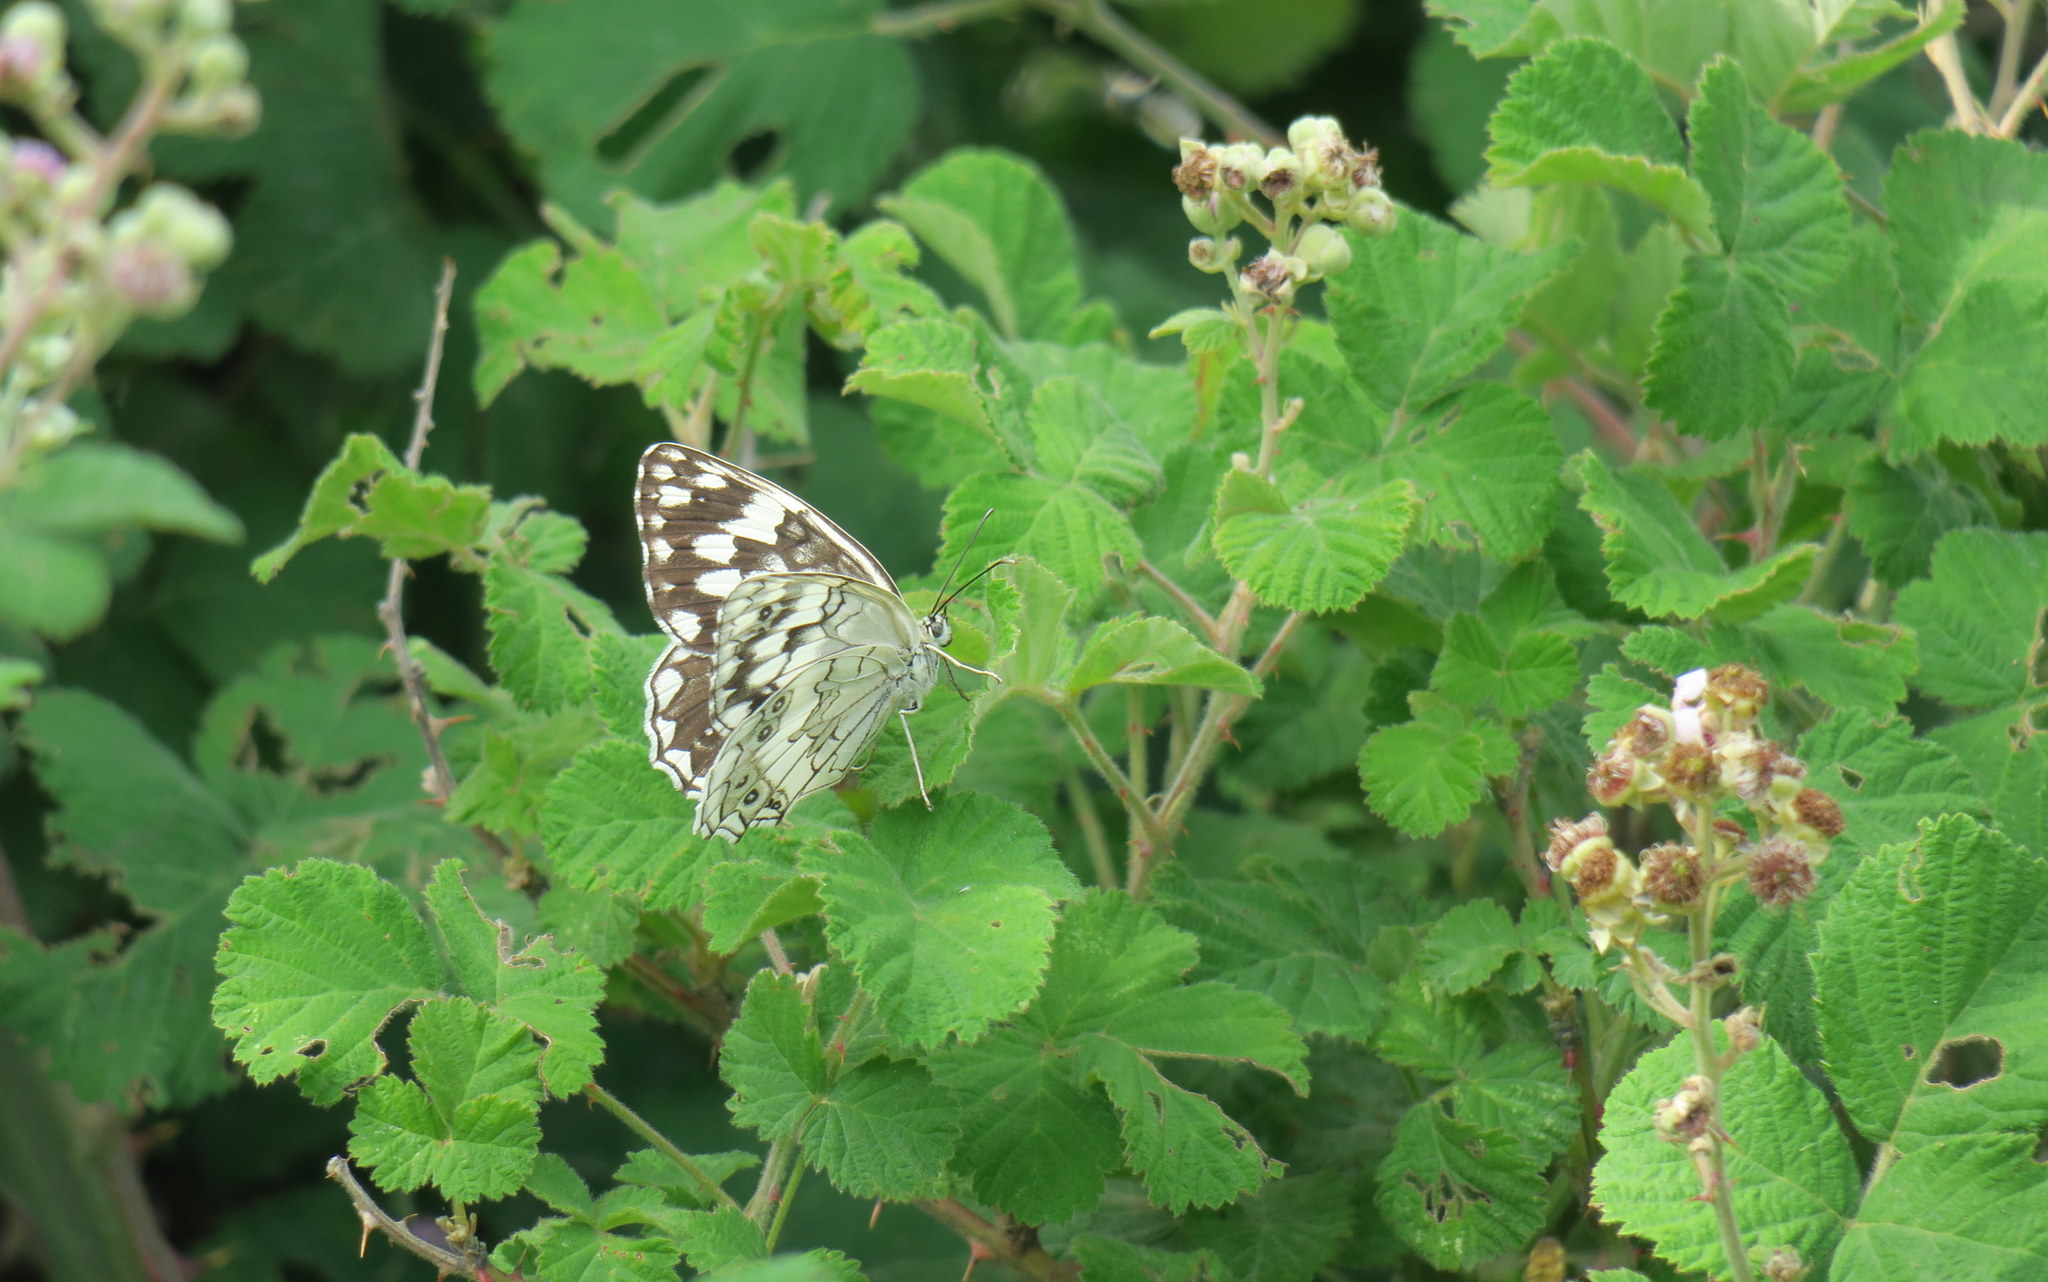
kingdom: Animalia
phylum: Arthropoda
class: Insecta
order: Lepidoptera
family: Nymphalidae
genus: Melanargia
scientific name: Melanargia larissa
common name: Balkan marbled white
